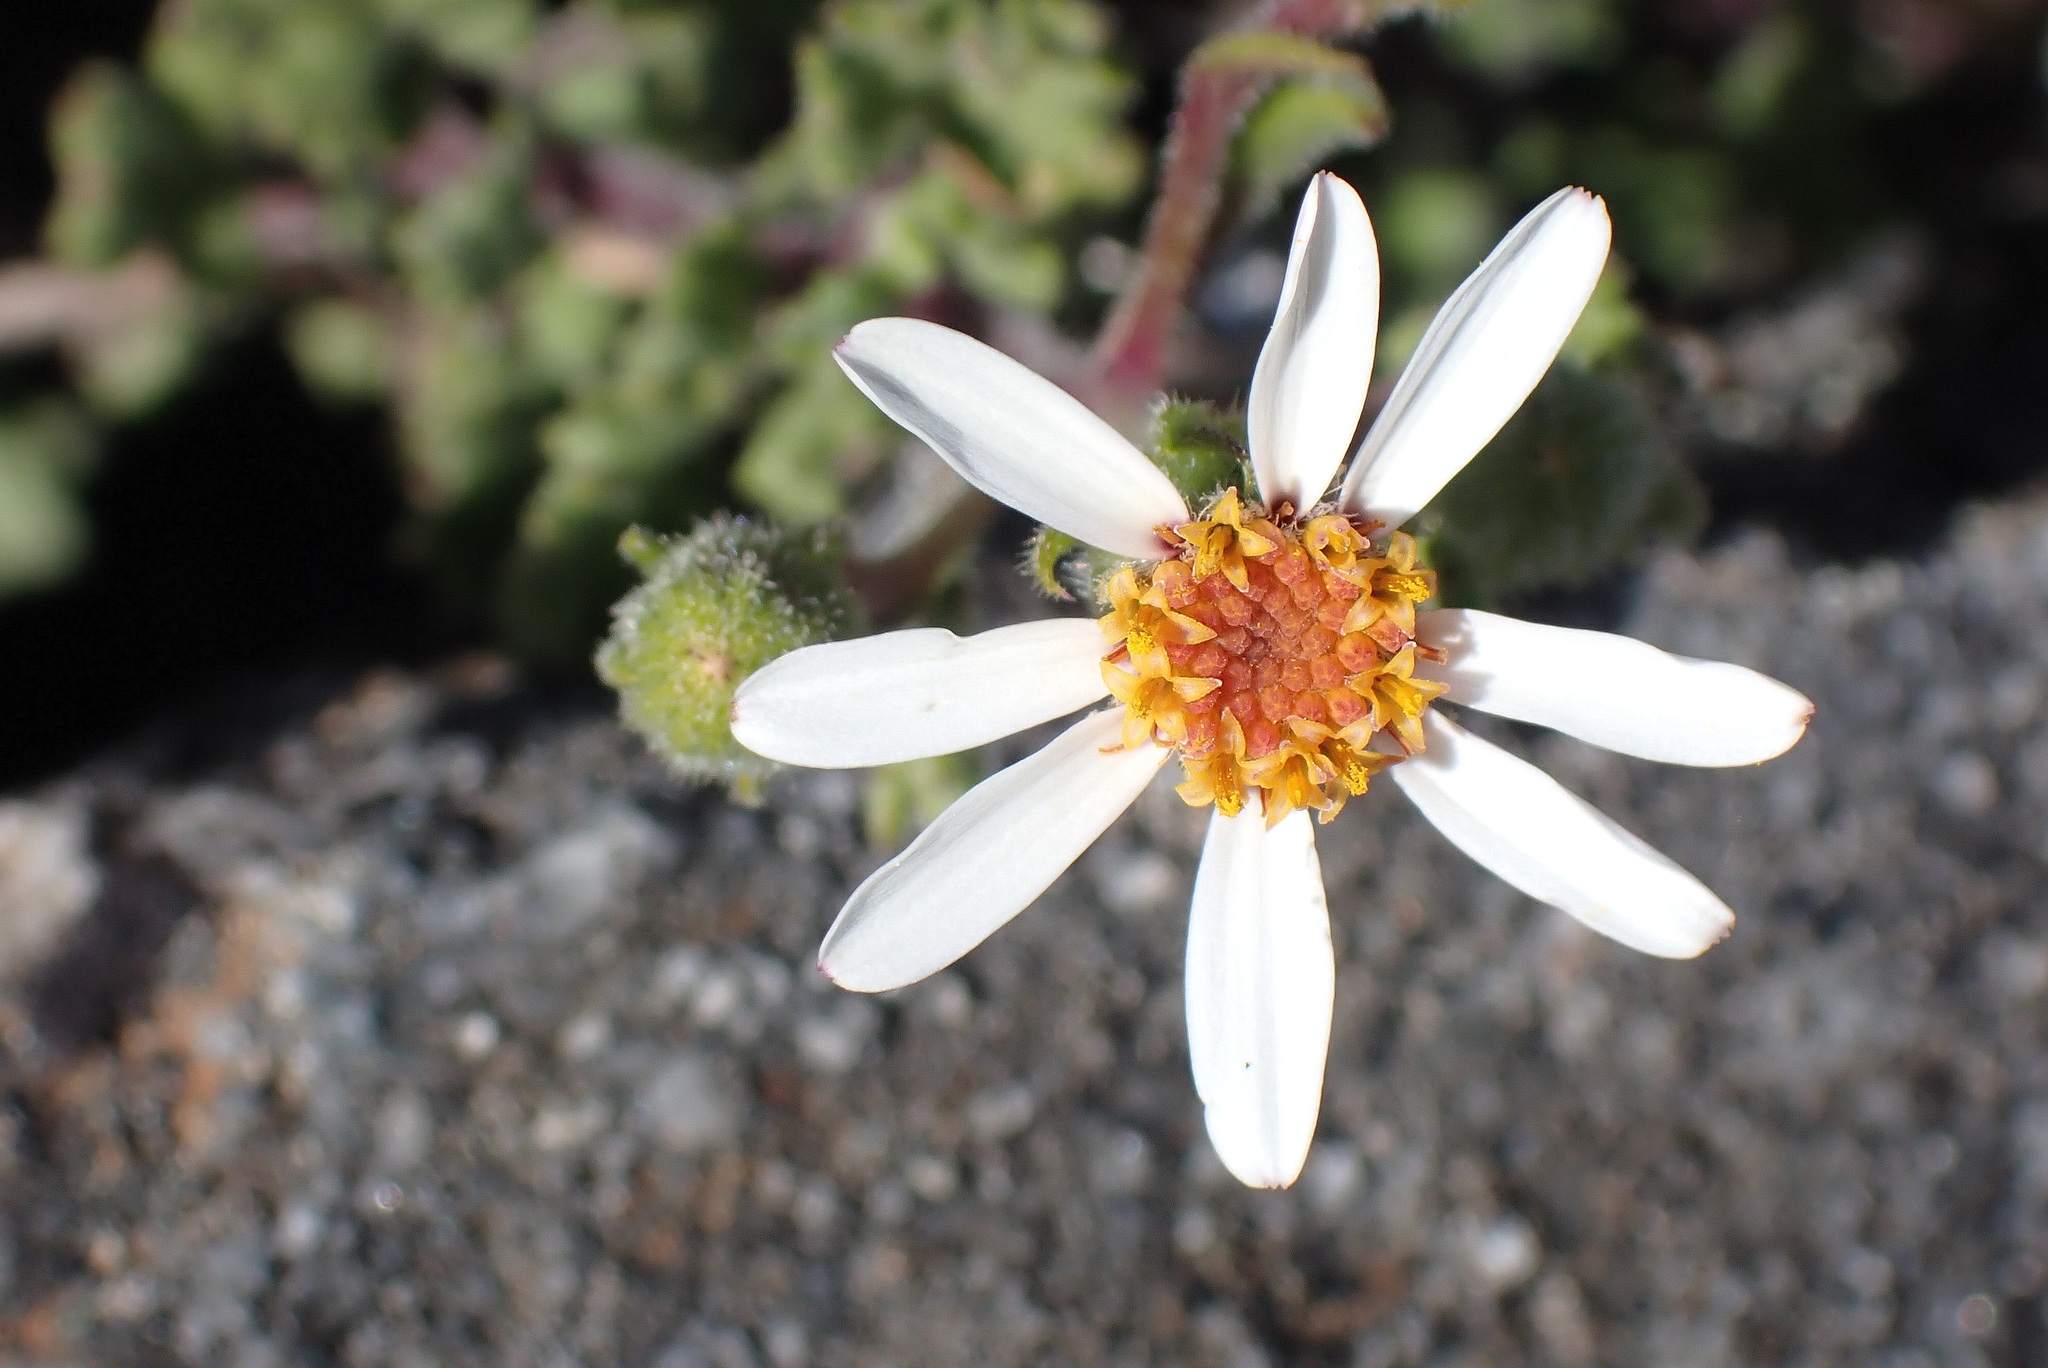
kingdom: Plantae
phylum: Tracheophyta
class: Magnoliopsida
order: Asterales
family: Asteraceae
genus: Senecio
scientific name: Senecio tortuosus
